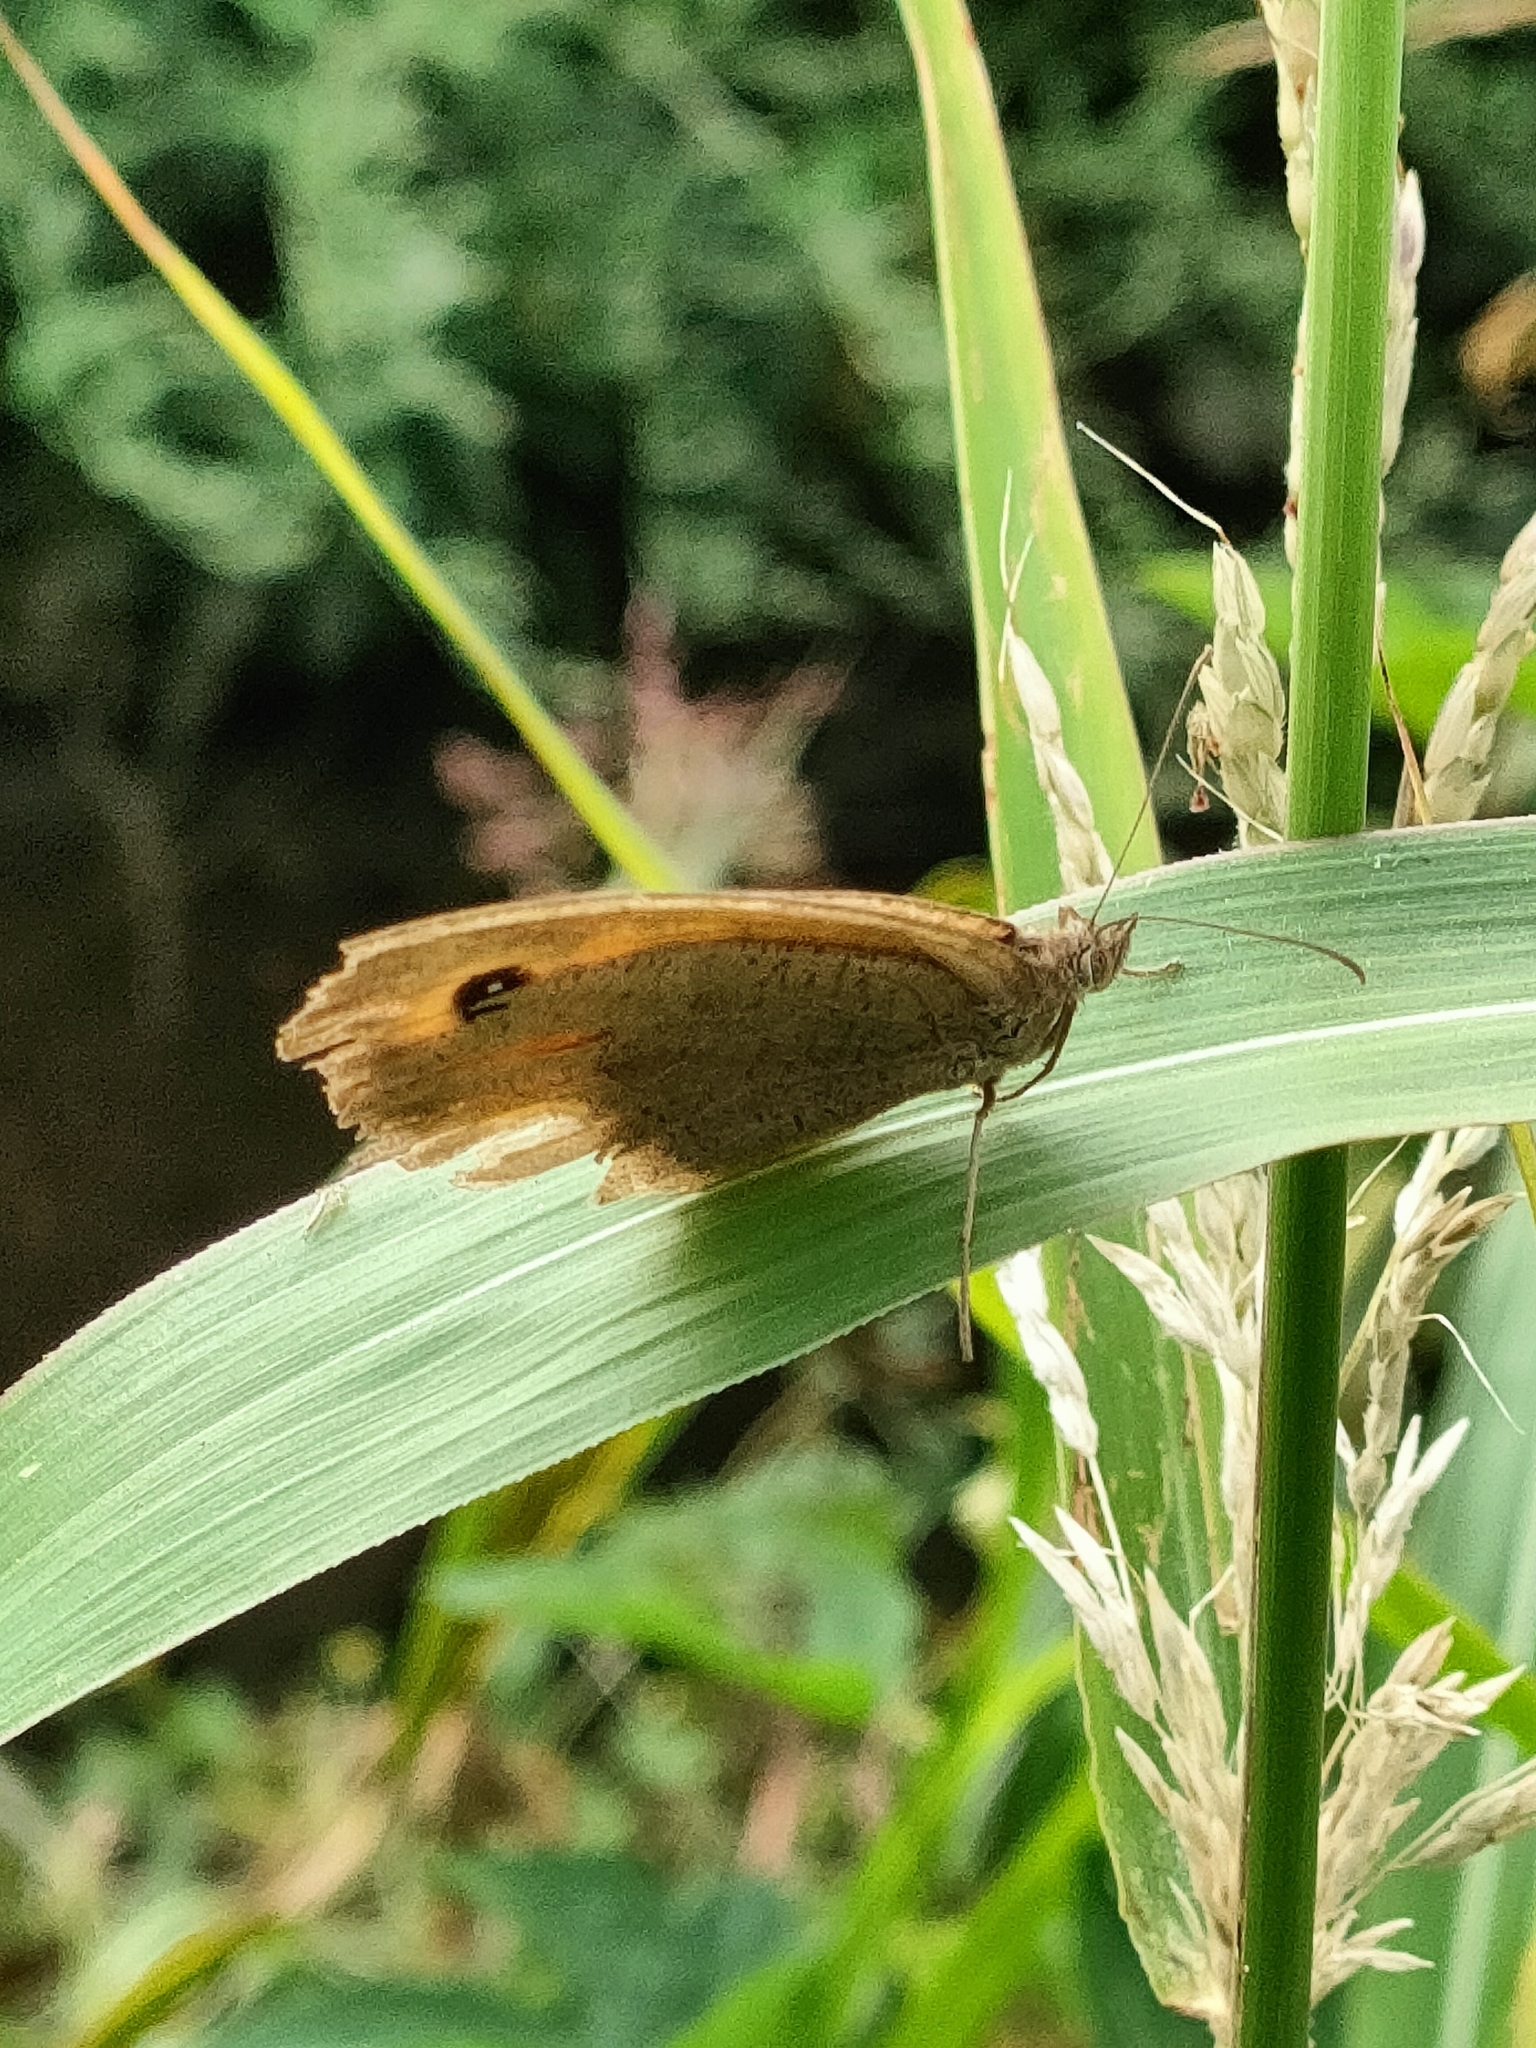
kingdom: Animalia
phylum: Arthropoda
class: Insecta
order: Lepidoptera
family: Nymphalidae
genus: Maniola
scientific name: Maniola jurtina
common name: Meadow brown
